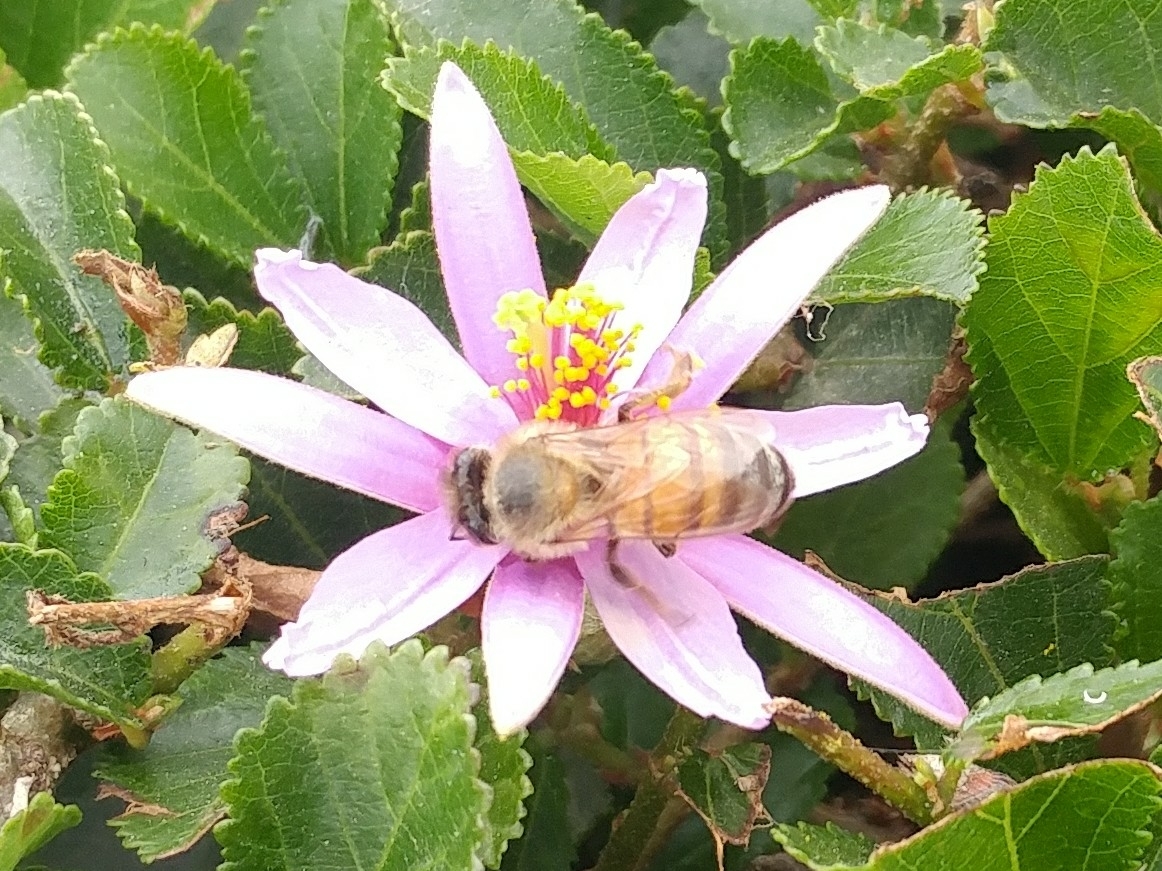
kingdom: Animalia
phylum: Arthropoda
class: Insecta
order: Hymenoptera
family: Apidae
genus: Apis
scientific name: Apis mellifera
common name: Honey bee
